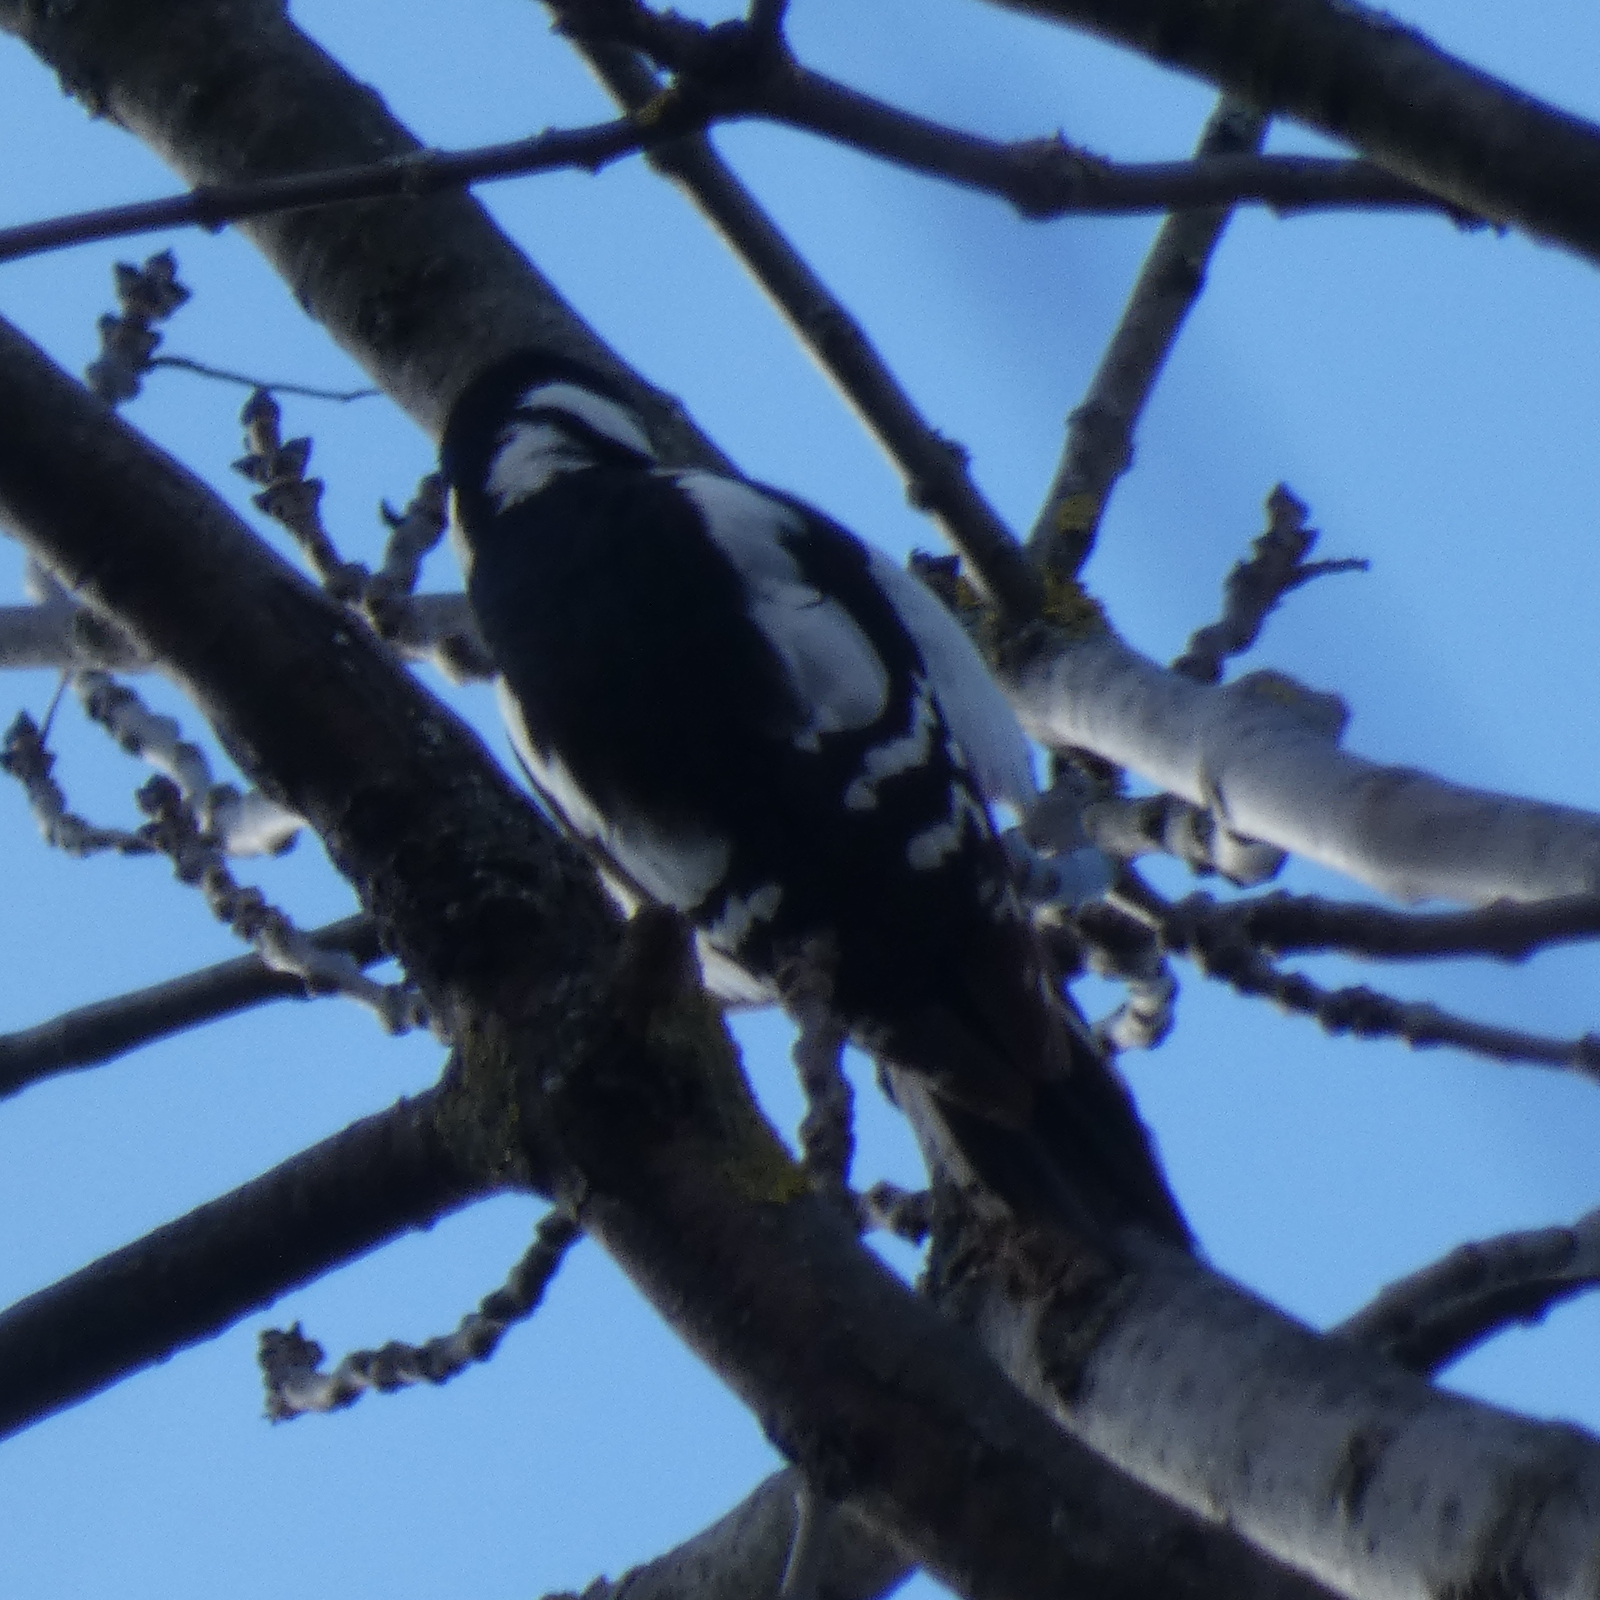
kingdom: Animalia
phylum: Chordata
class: Aves
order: Piciformes
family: Picidae
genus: Dendrocopos
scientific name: Dendrocopos major
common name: Great spotted woodpecker
